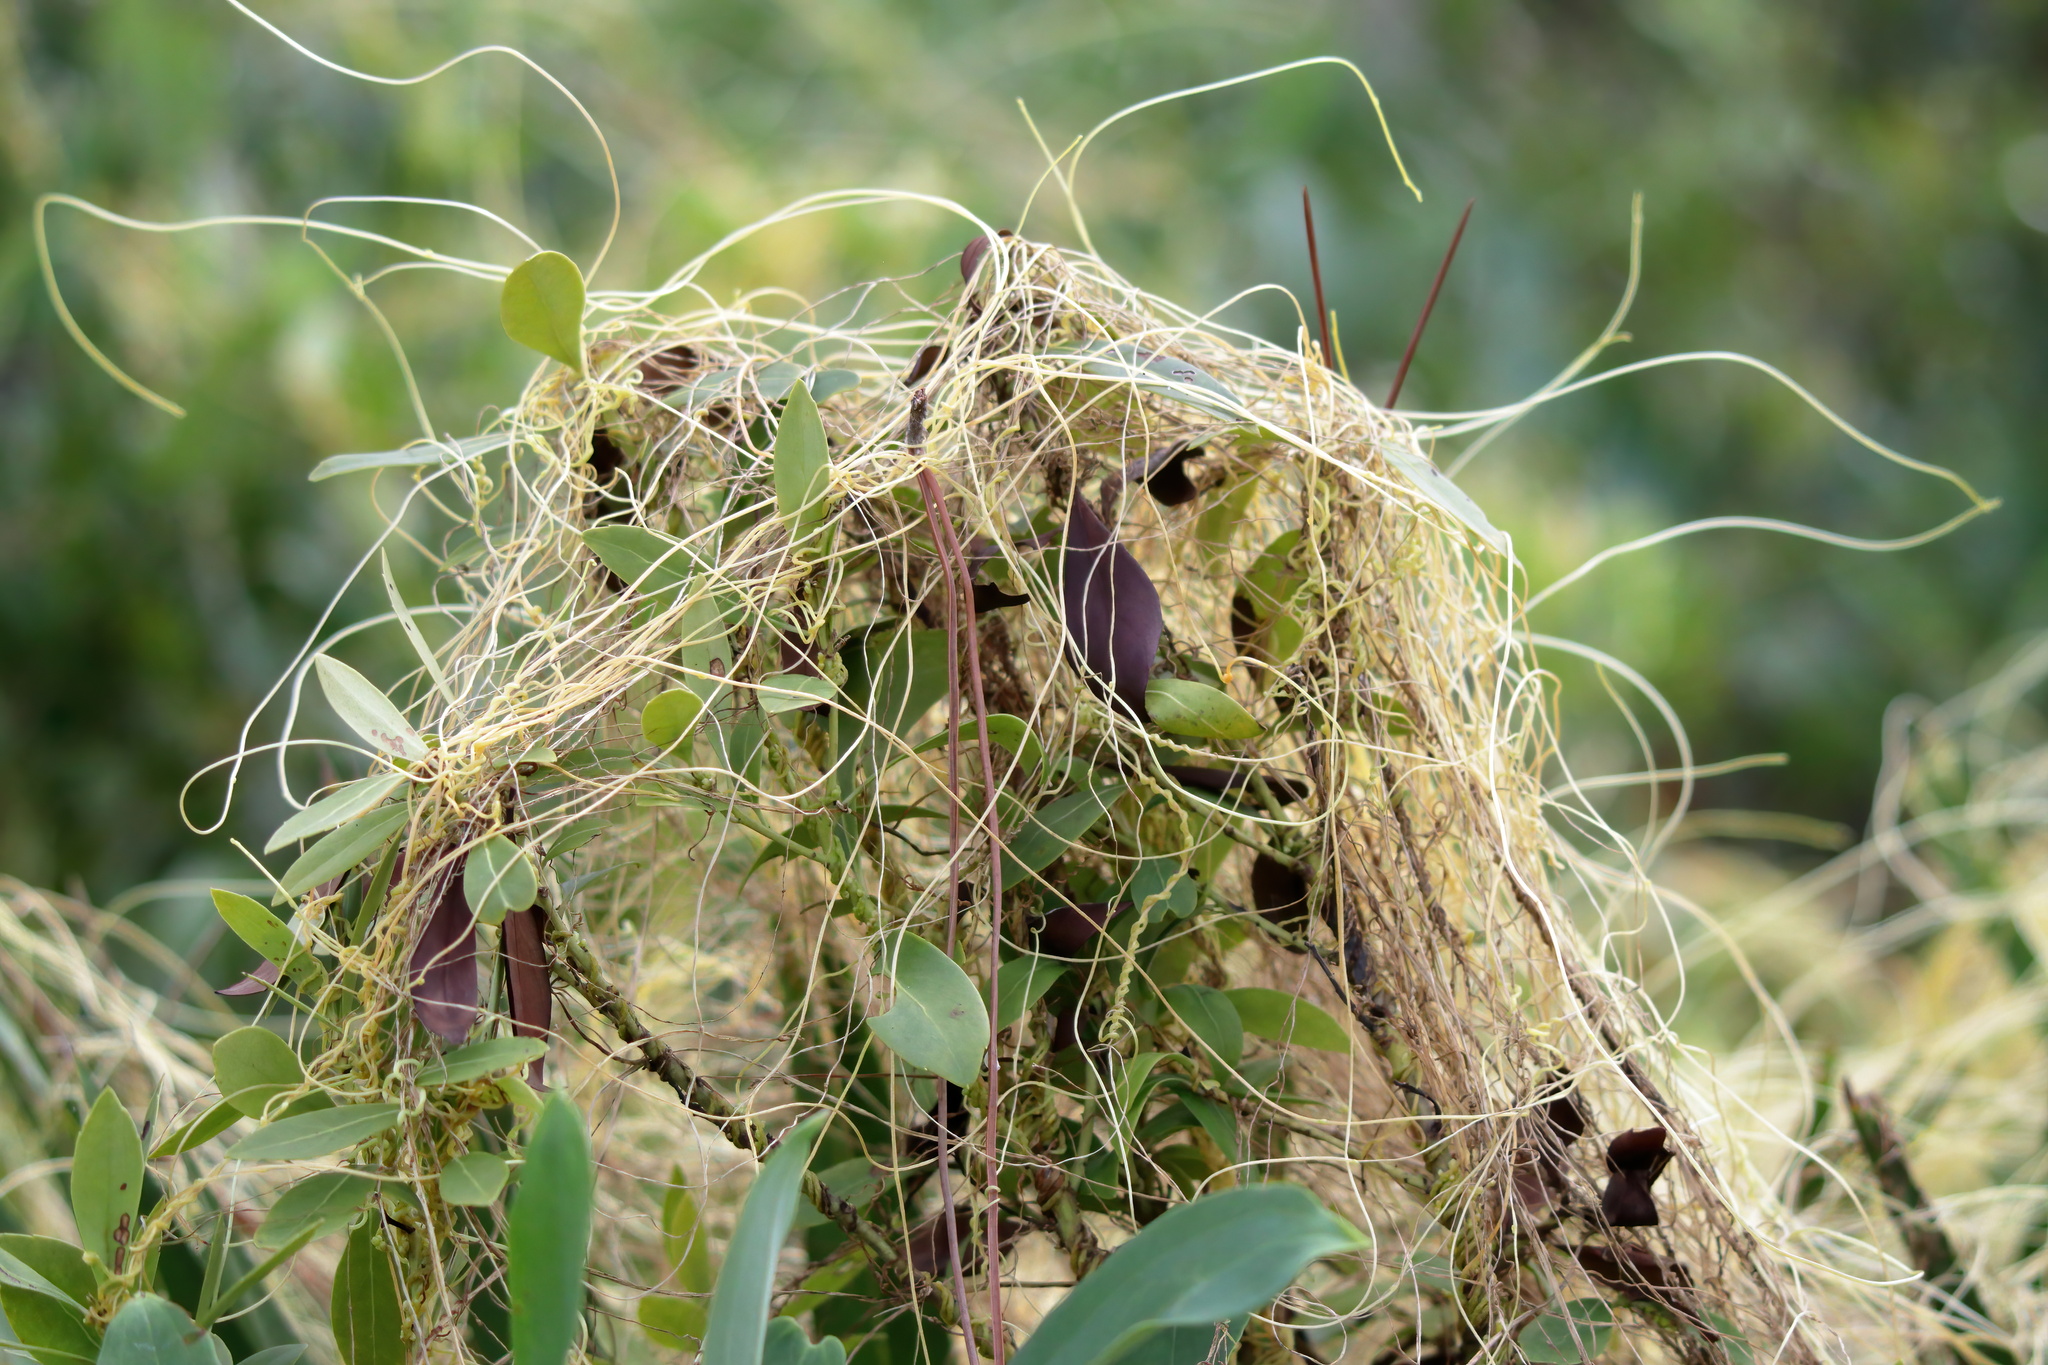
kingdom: Plantae
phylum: Tracheophyta
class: Magnoliopsida
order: Solanales
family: Convolvulaceae
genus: Cuscuta
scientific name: Cuscuta campestris
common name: Yellow dodder
